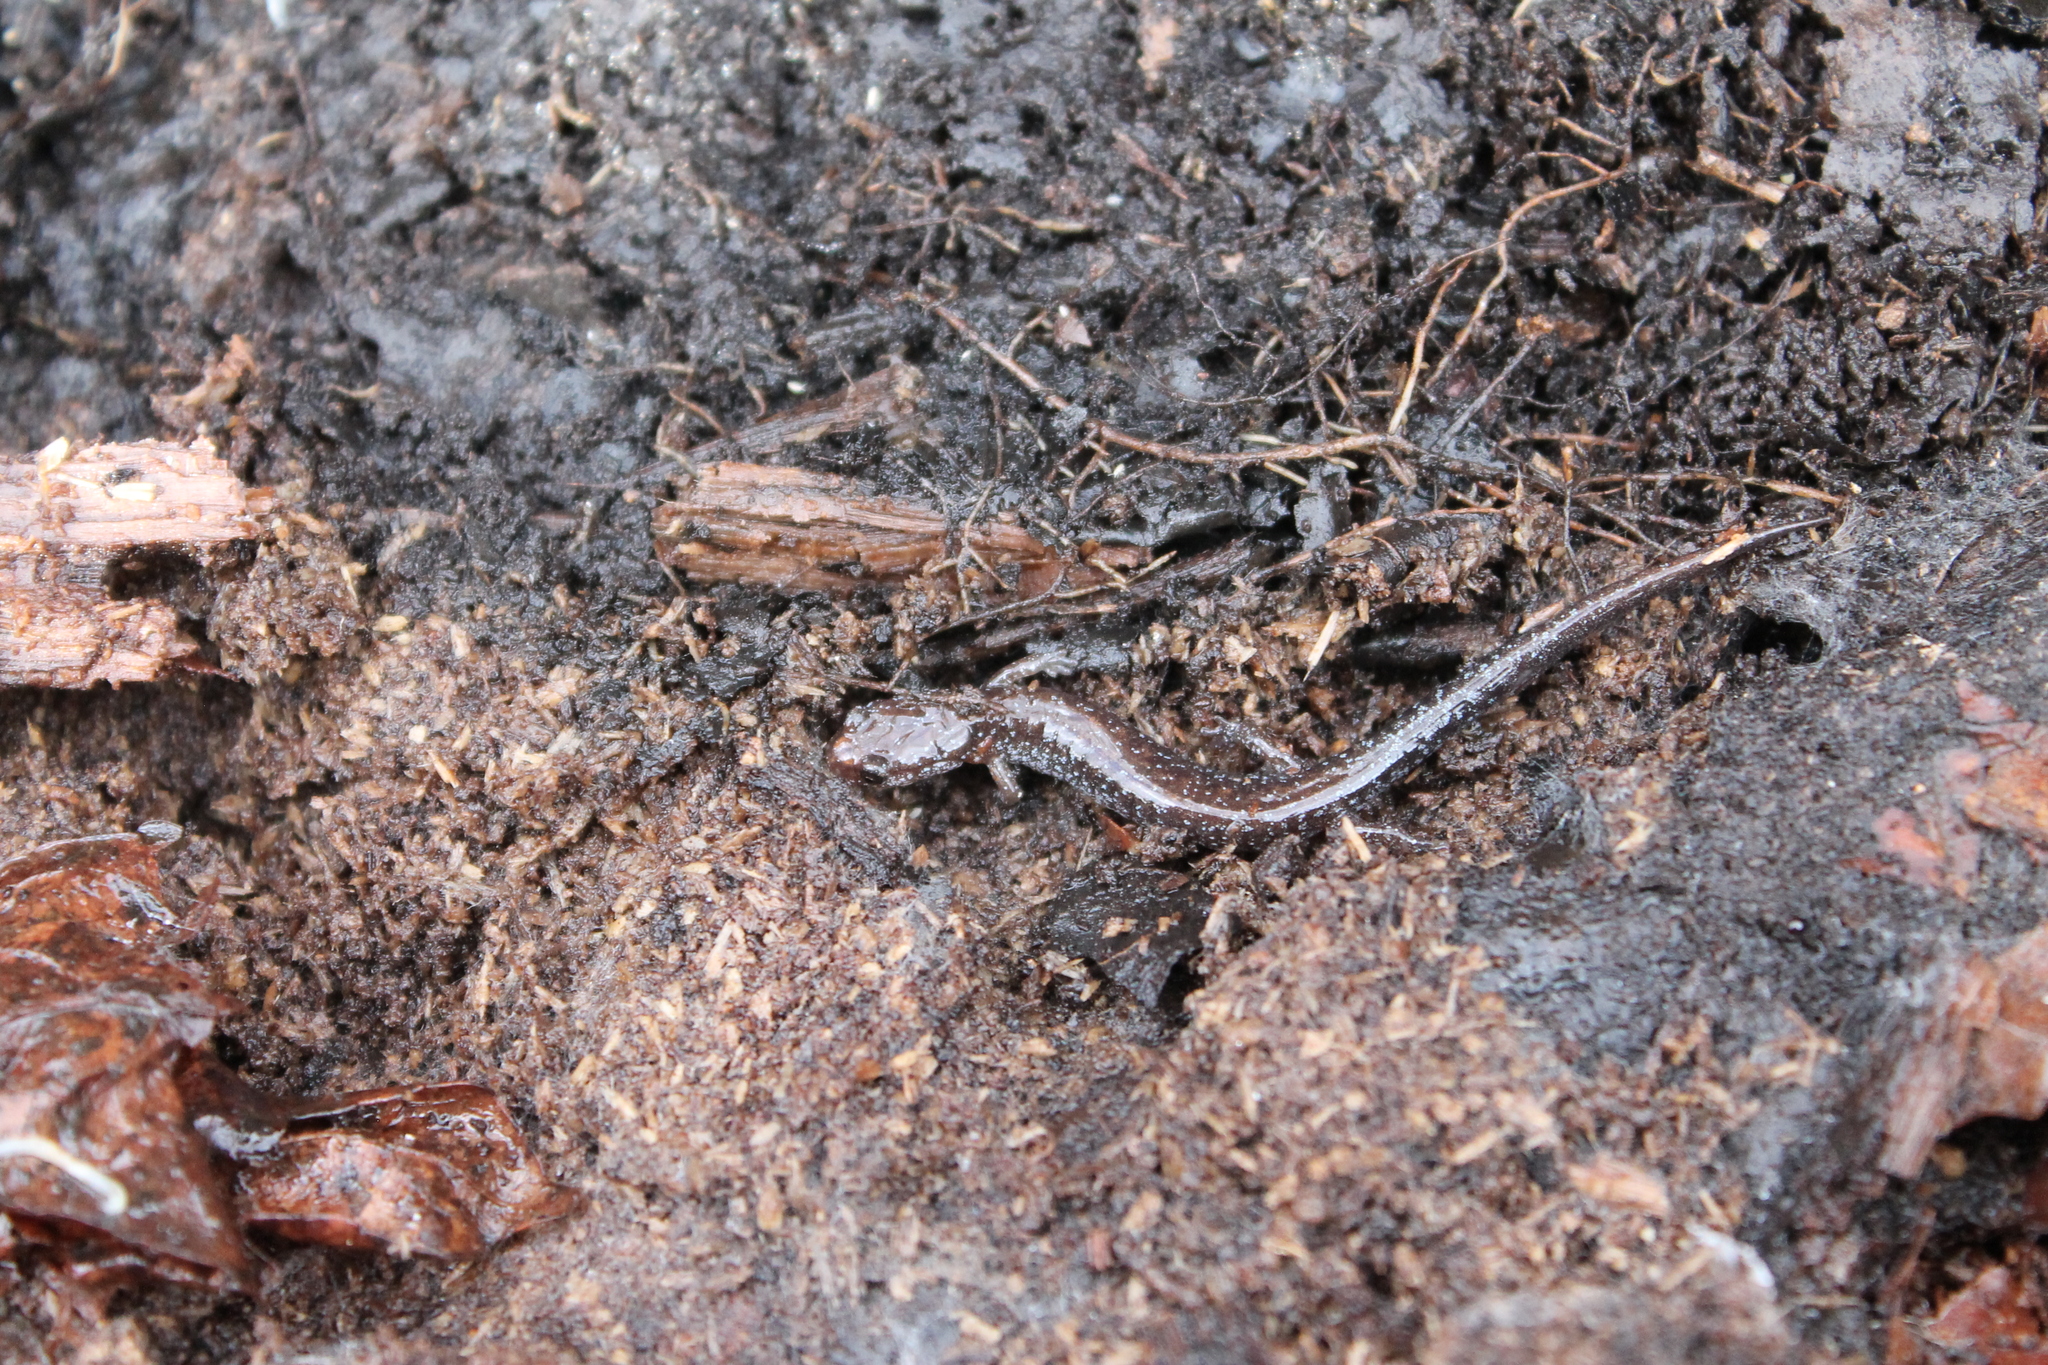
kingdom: Animalia
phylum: Chordata
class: Amphibia
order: Caudata
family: Plethodontidae
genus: Plethodon
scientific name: Plethodon dorsalis
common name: Northern zigzag salamander
